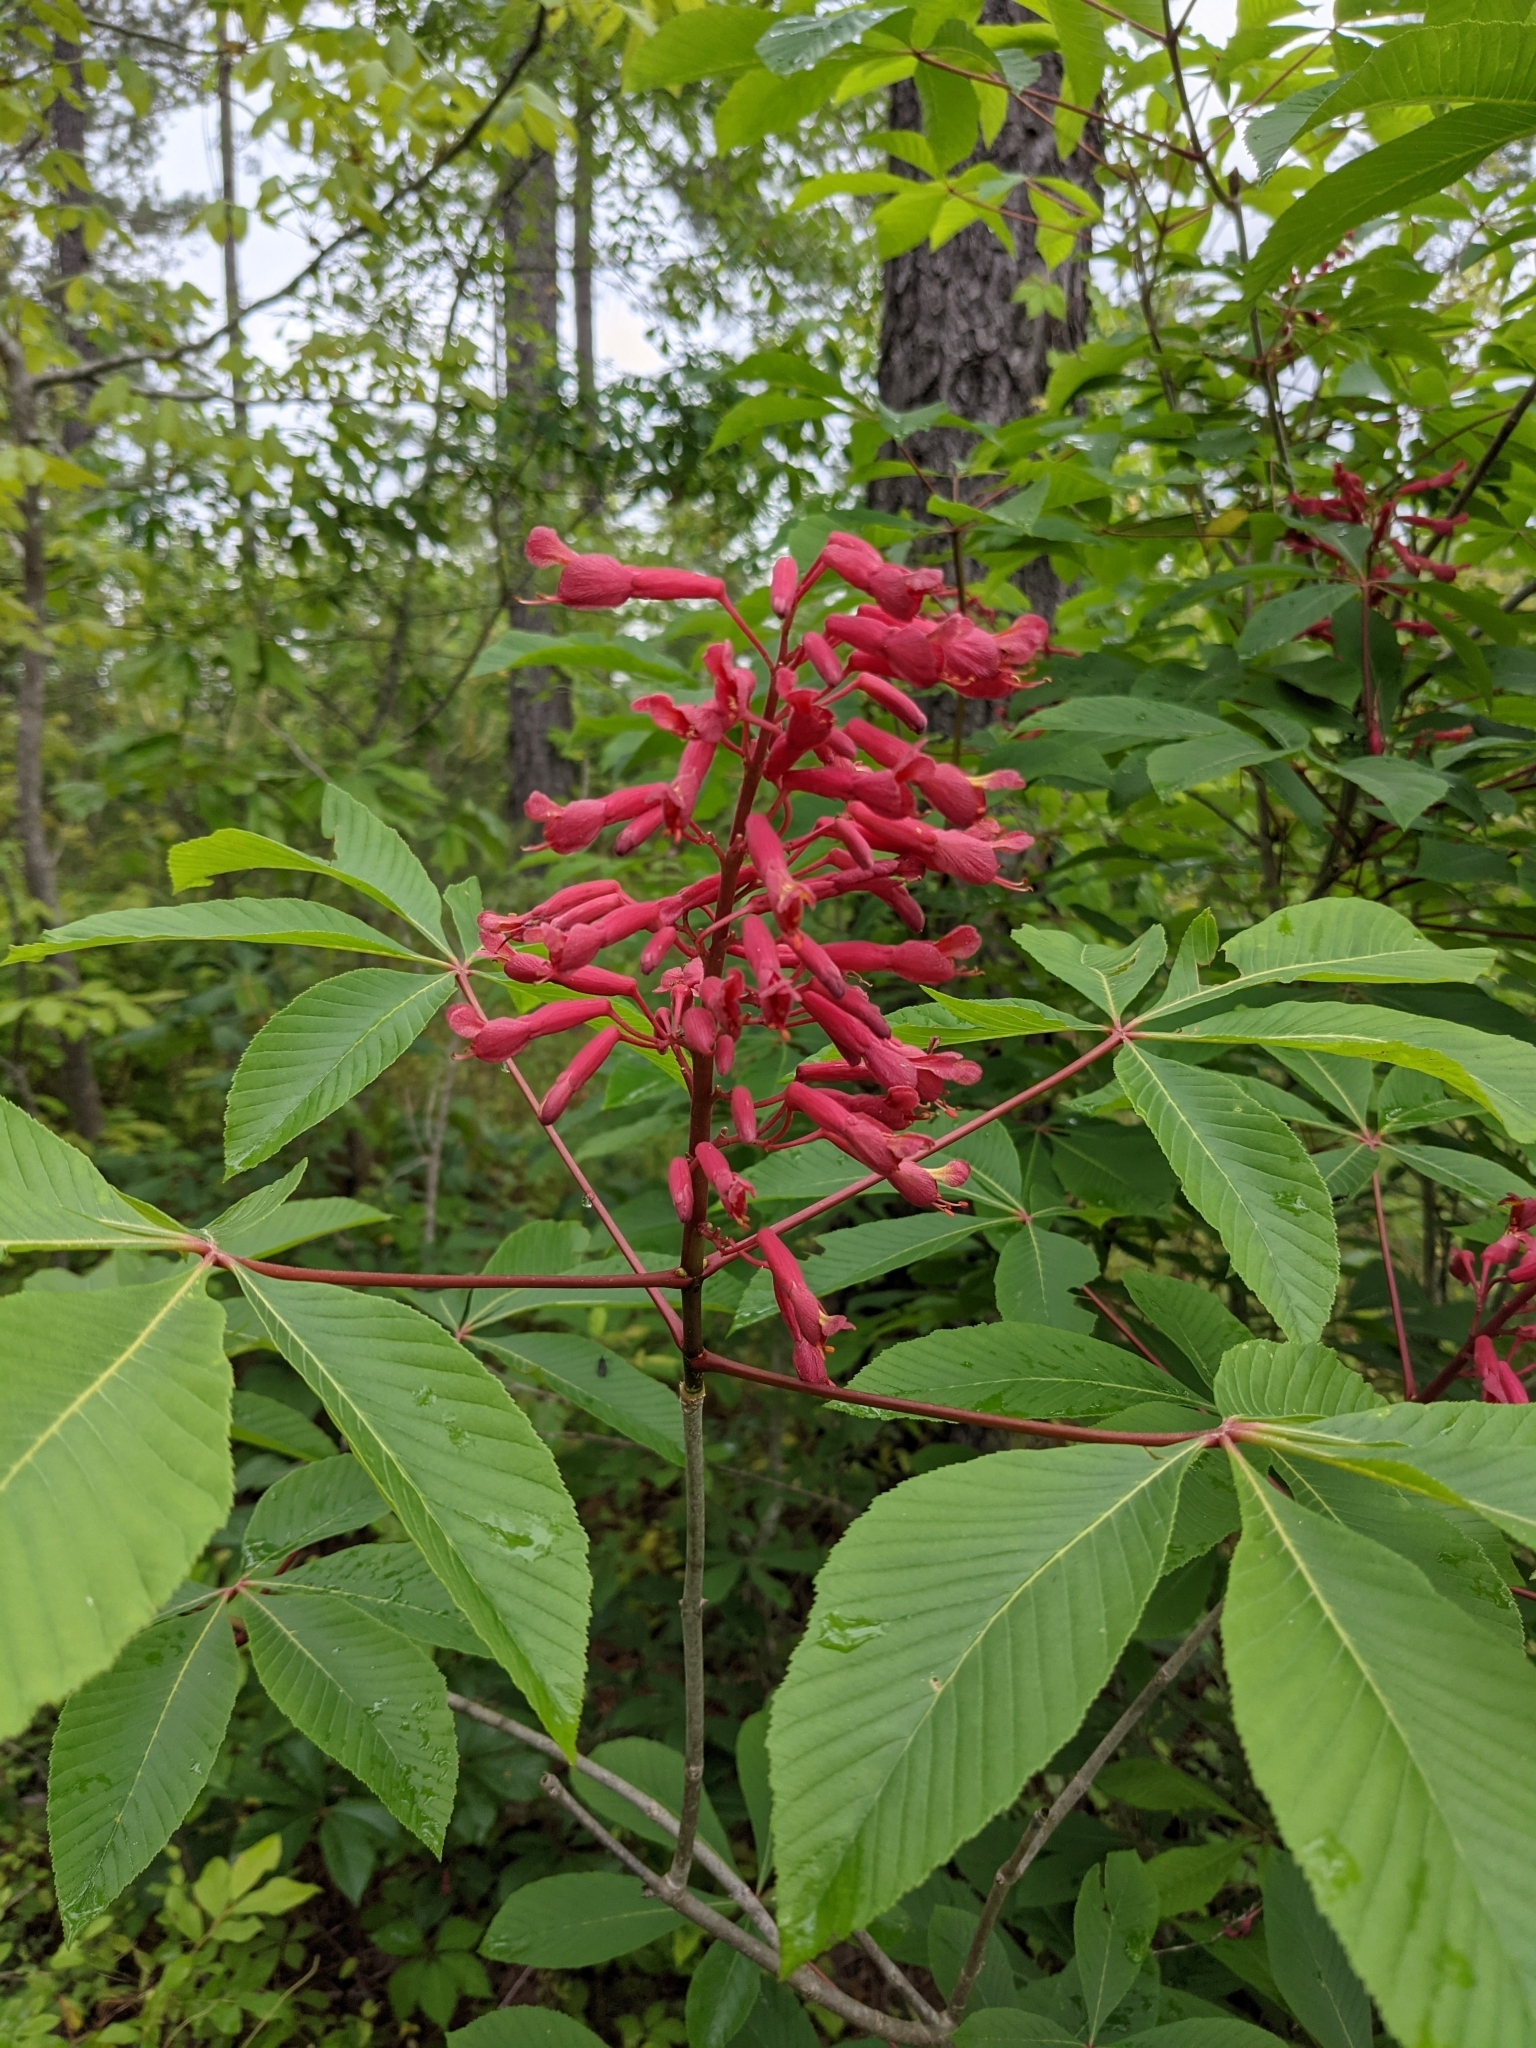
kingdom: Plantae
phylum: Tracheophyta
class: Magnoliopsida
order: Sapindales
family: Sapindaceae
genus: Aesculus
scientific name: Aesculus pavia
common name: Red buckeye
